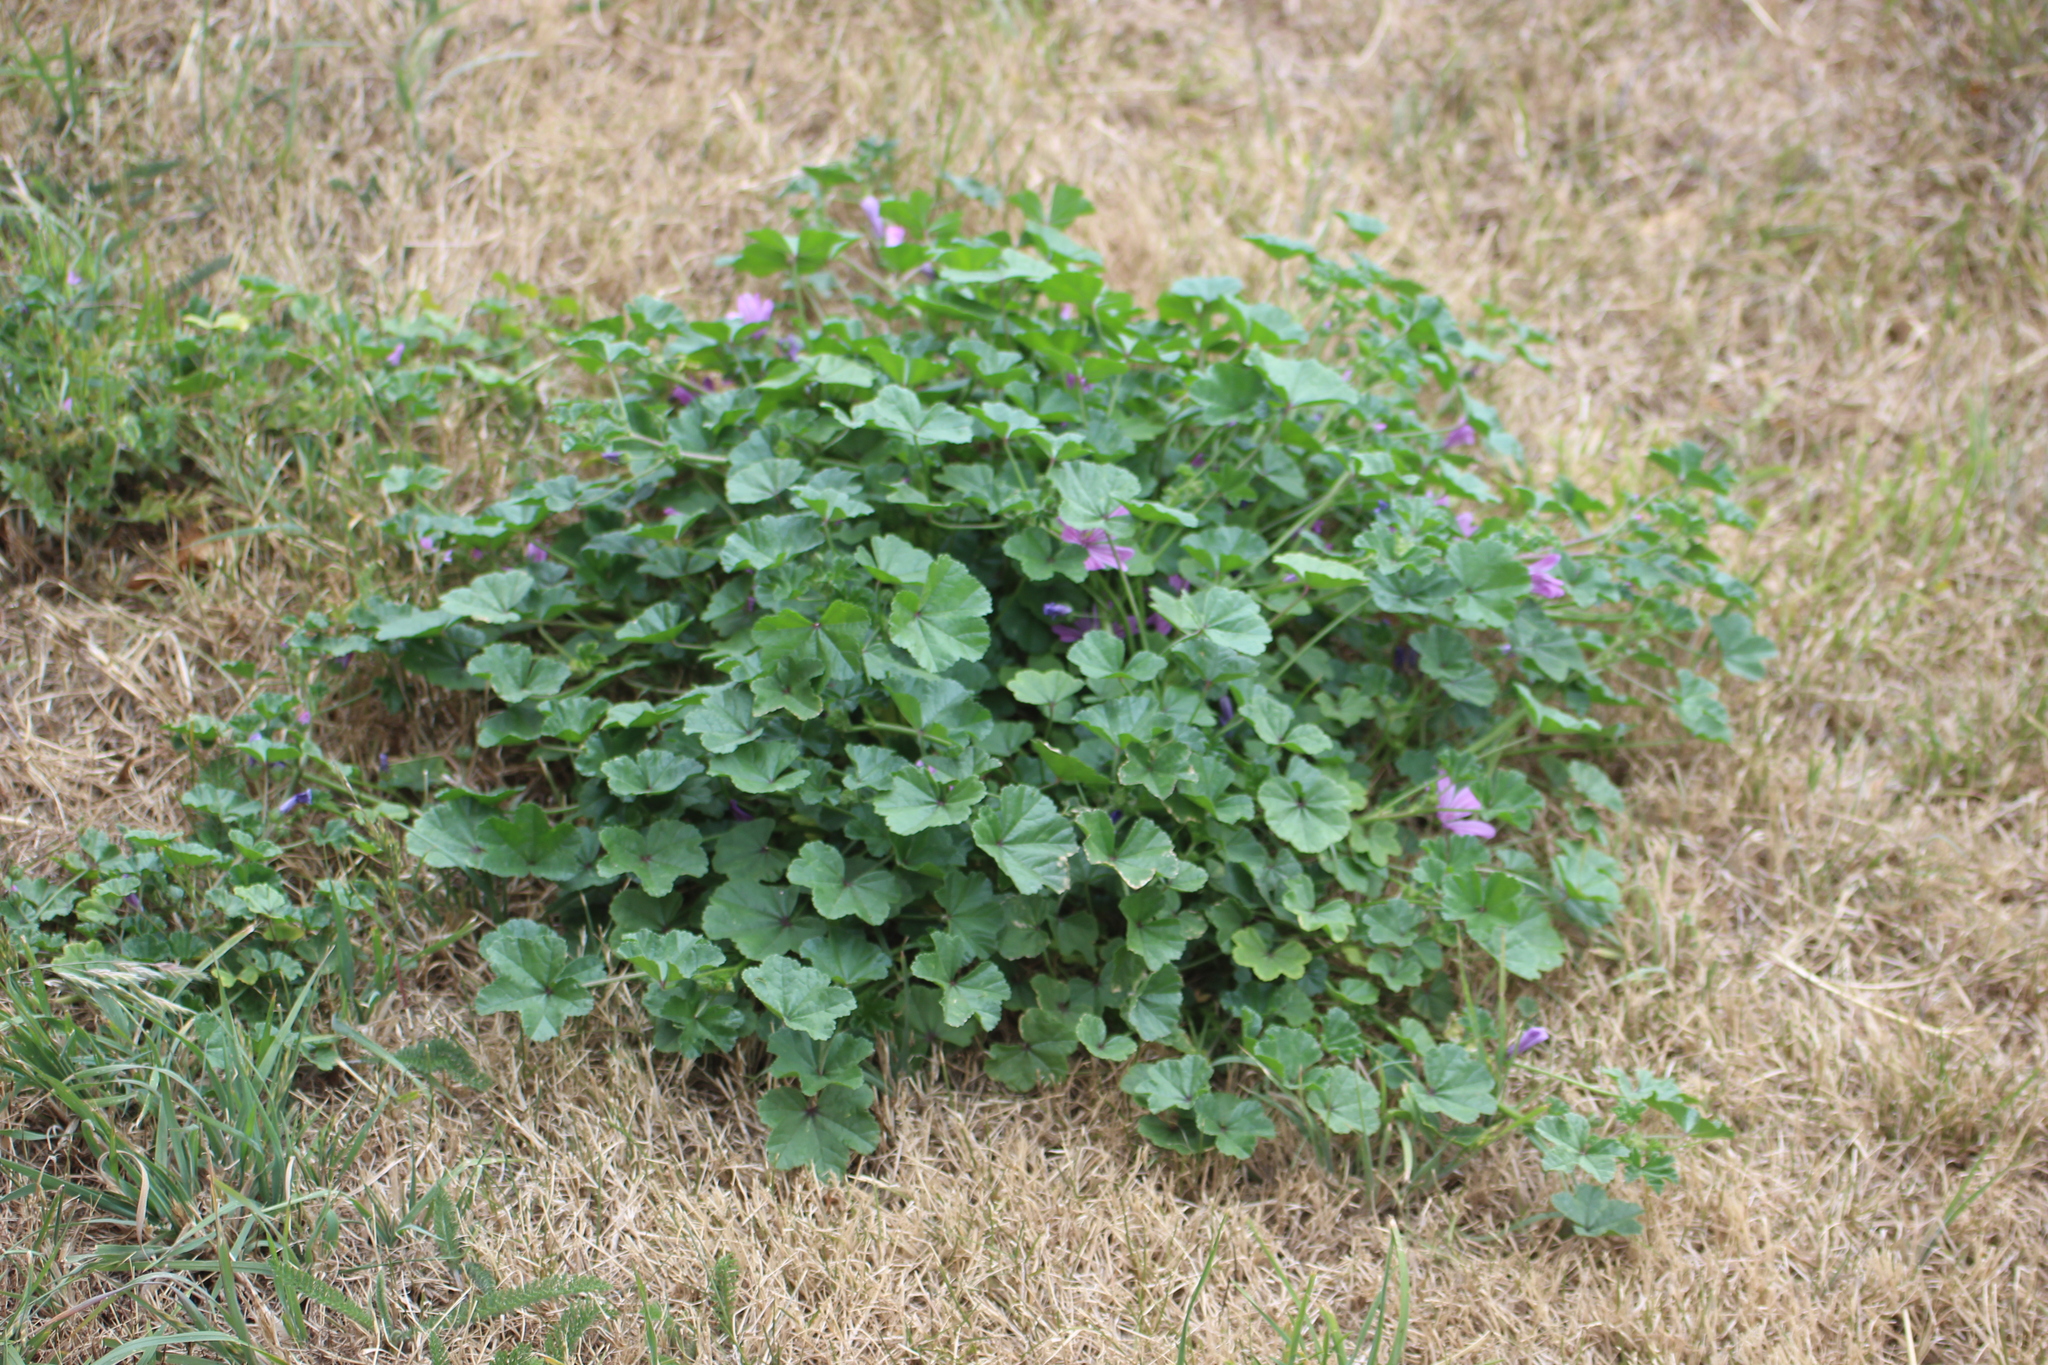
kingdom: Plantae
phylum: Tracheophyta
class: Magnoliopsida
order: Malvales
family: Malvaceae
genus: Malva
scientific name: Malva sylvestris
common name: Common mallow
